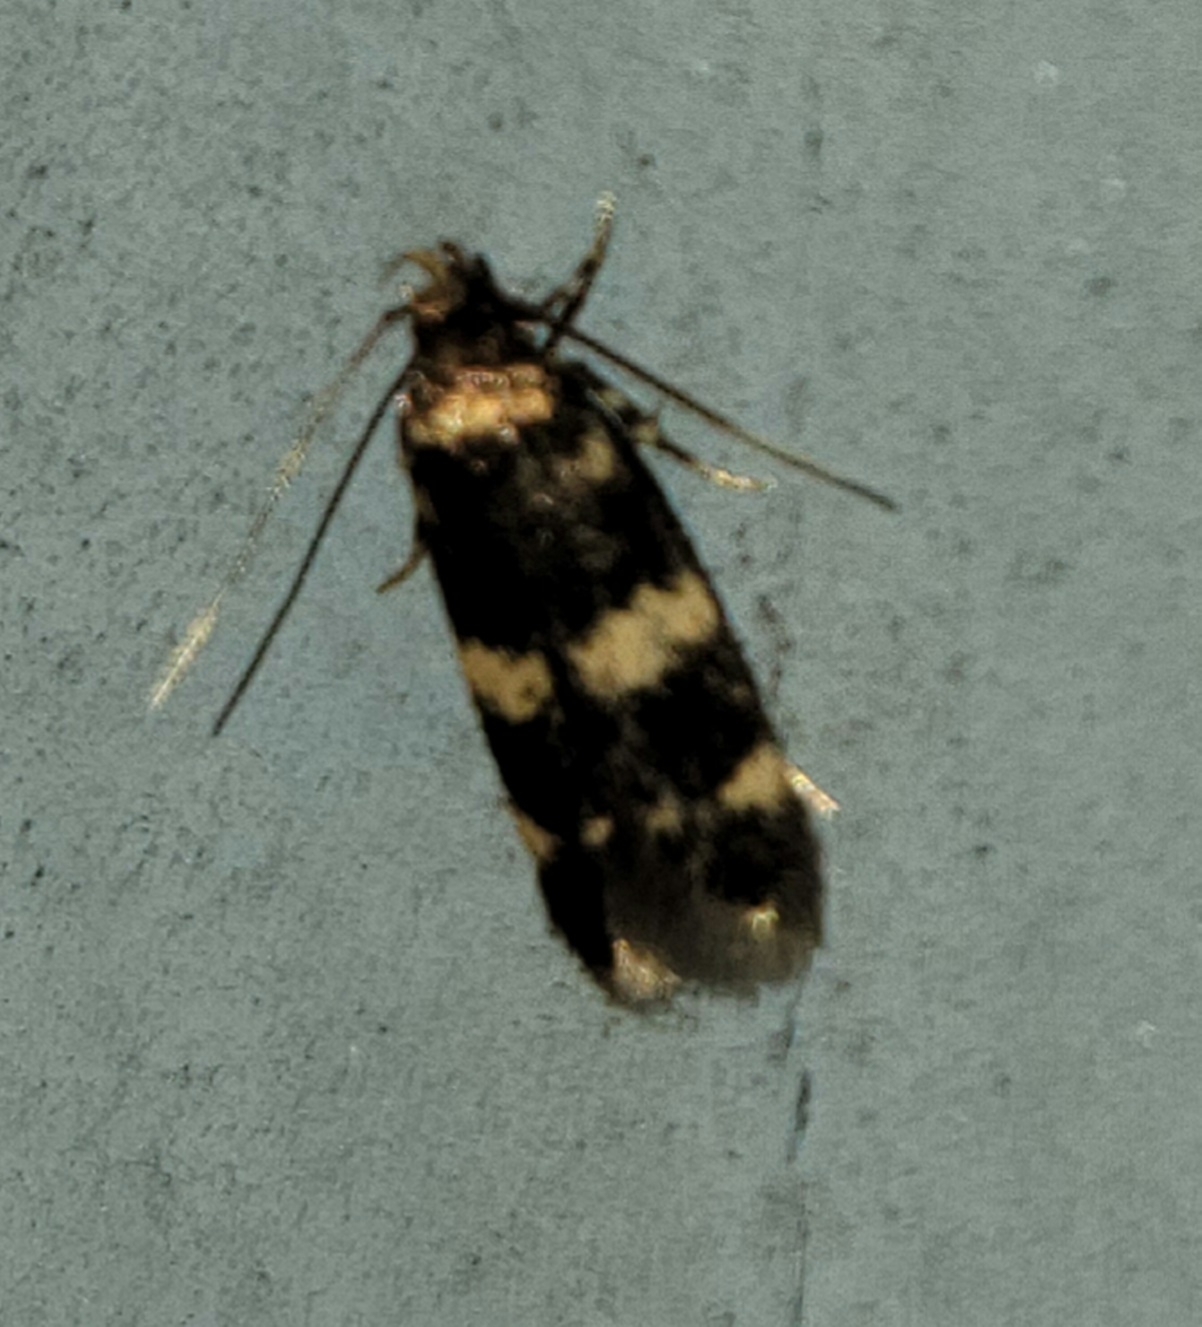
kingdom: Animalia
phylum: Arthropoda
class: Insecta
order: Lepidoptera
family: Autostichidae
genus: Oegoconia
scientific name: Oegoconia quadripuncta
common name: Four-spotted obscure
